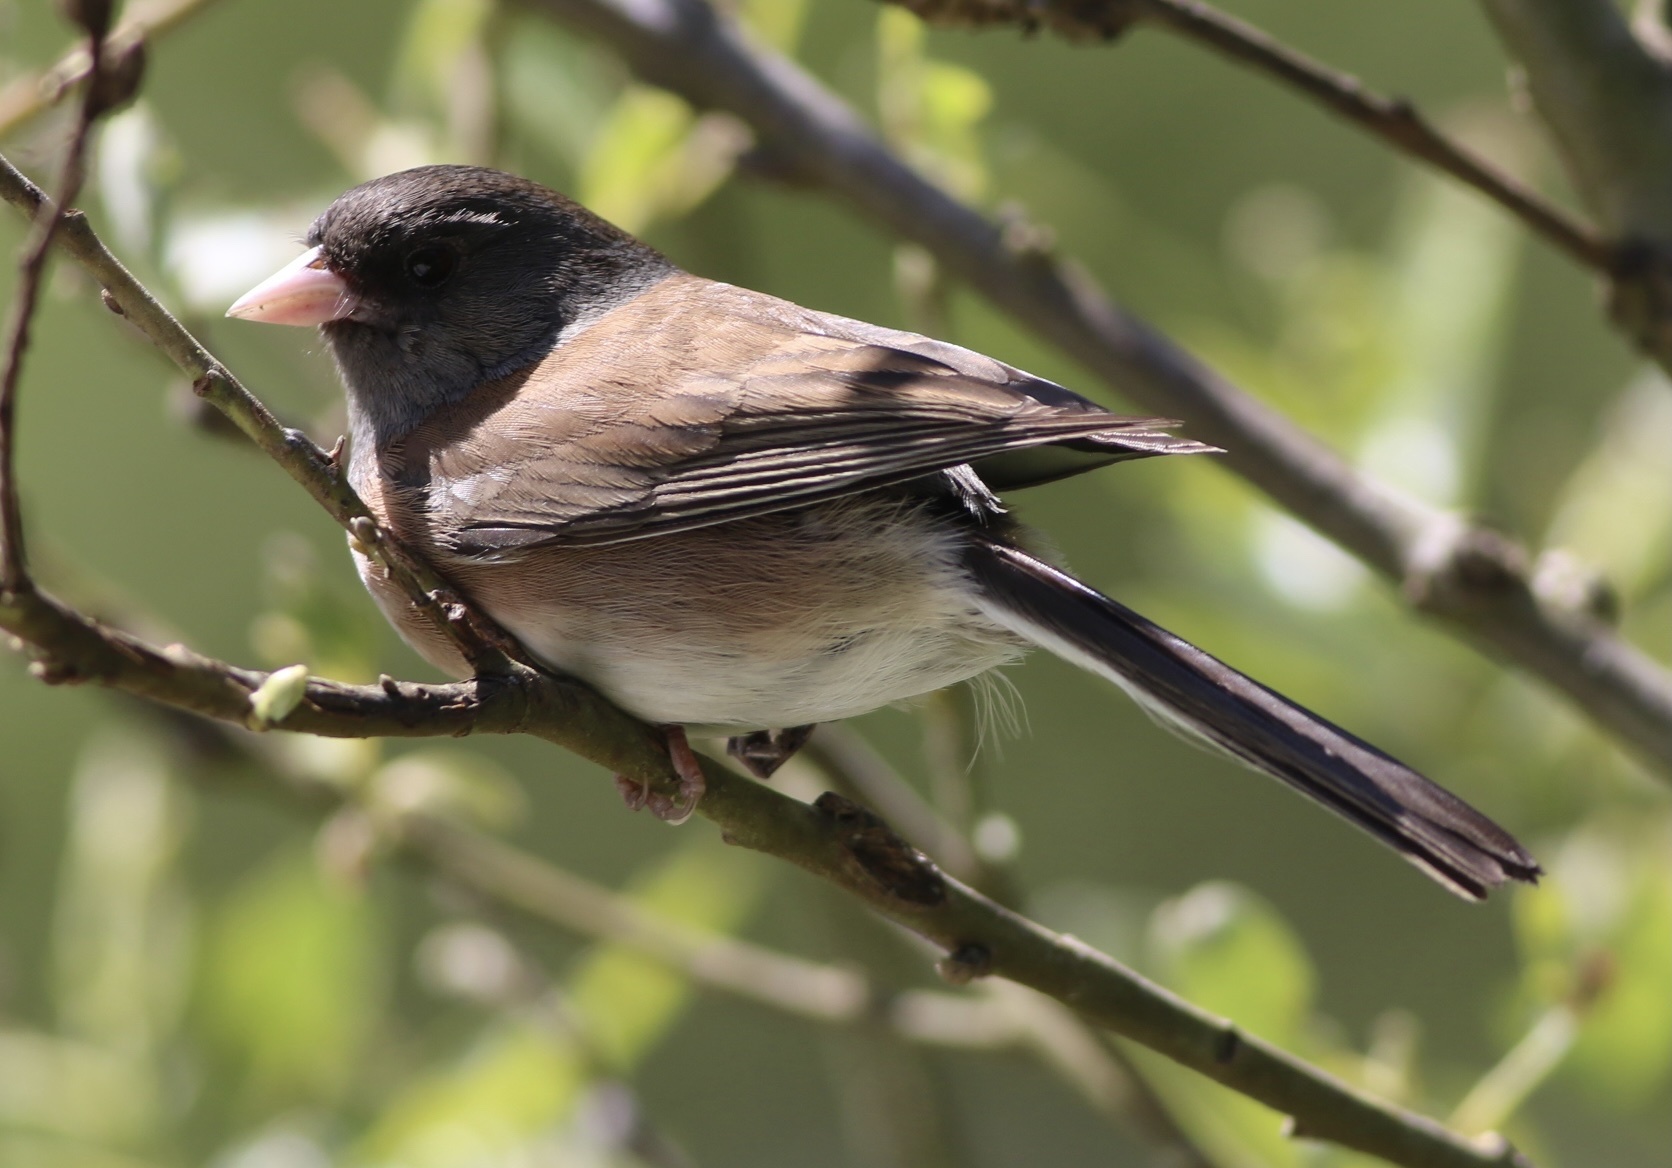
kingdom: Animalia
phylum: Chordata
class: Aves
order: Passeriformes
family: Passerellidae
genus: Junco
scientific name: Junco hyemalis
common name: Dark-eyed junco
